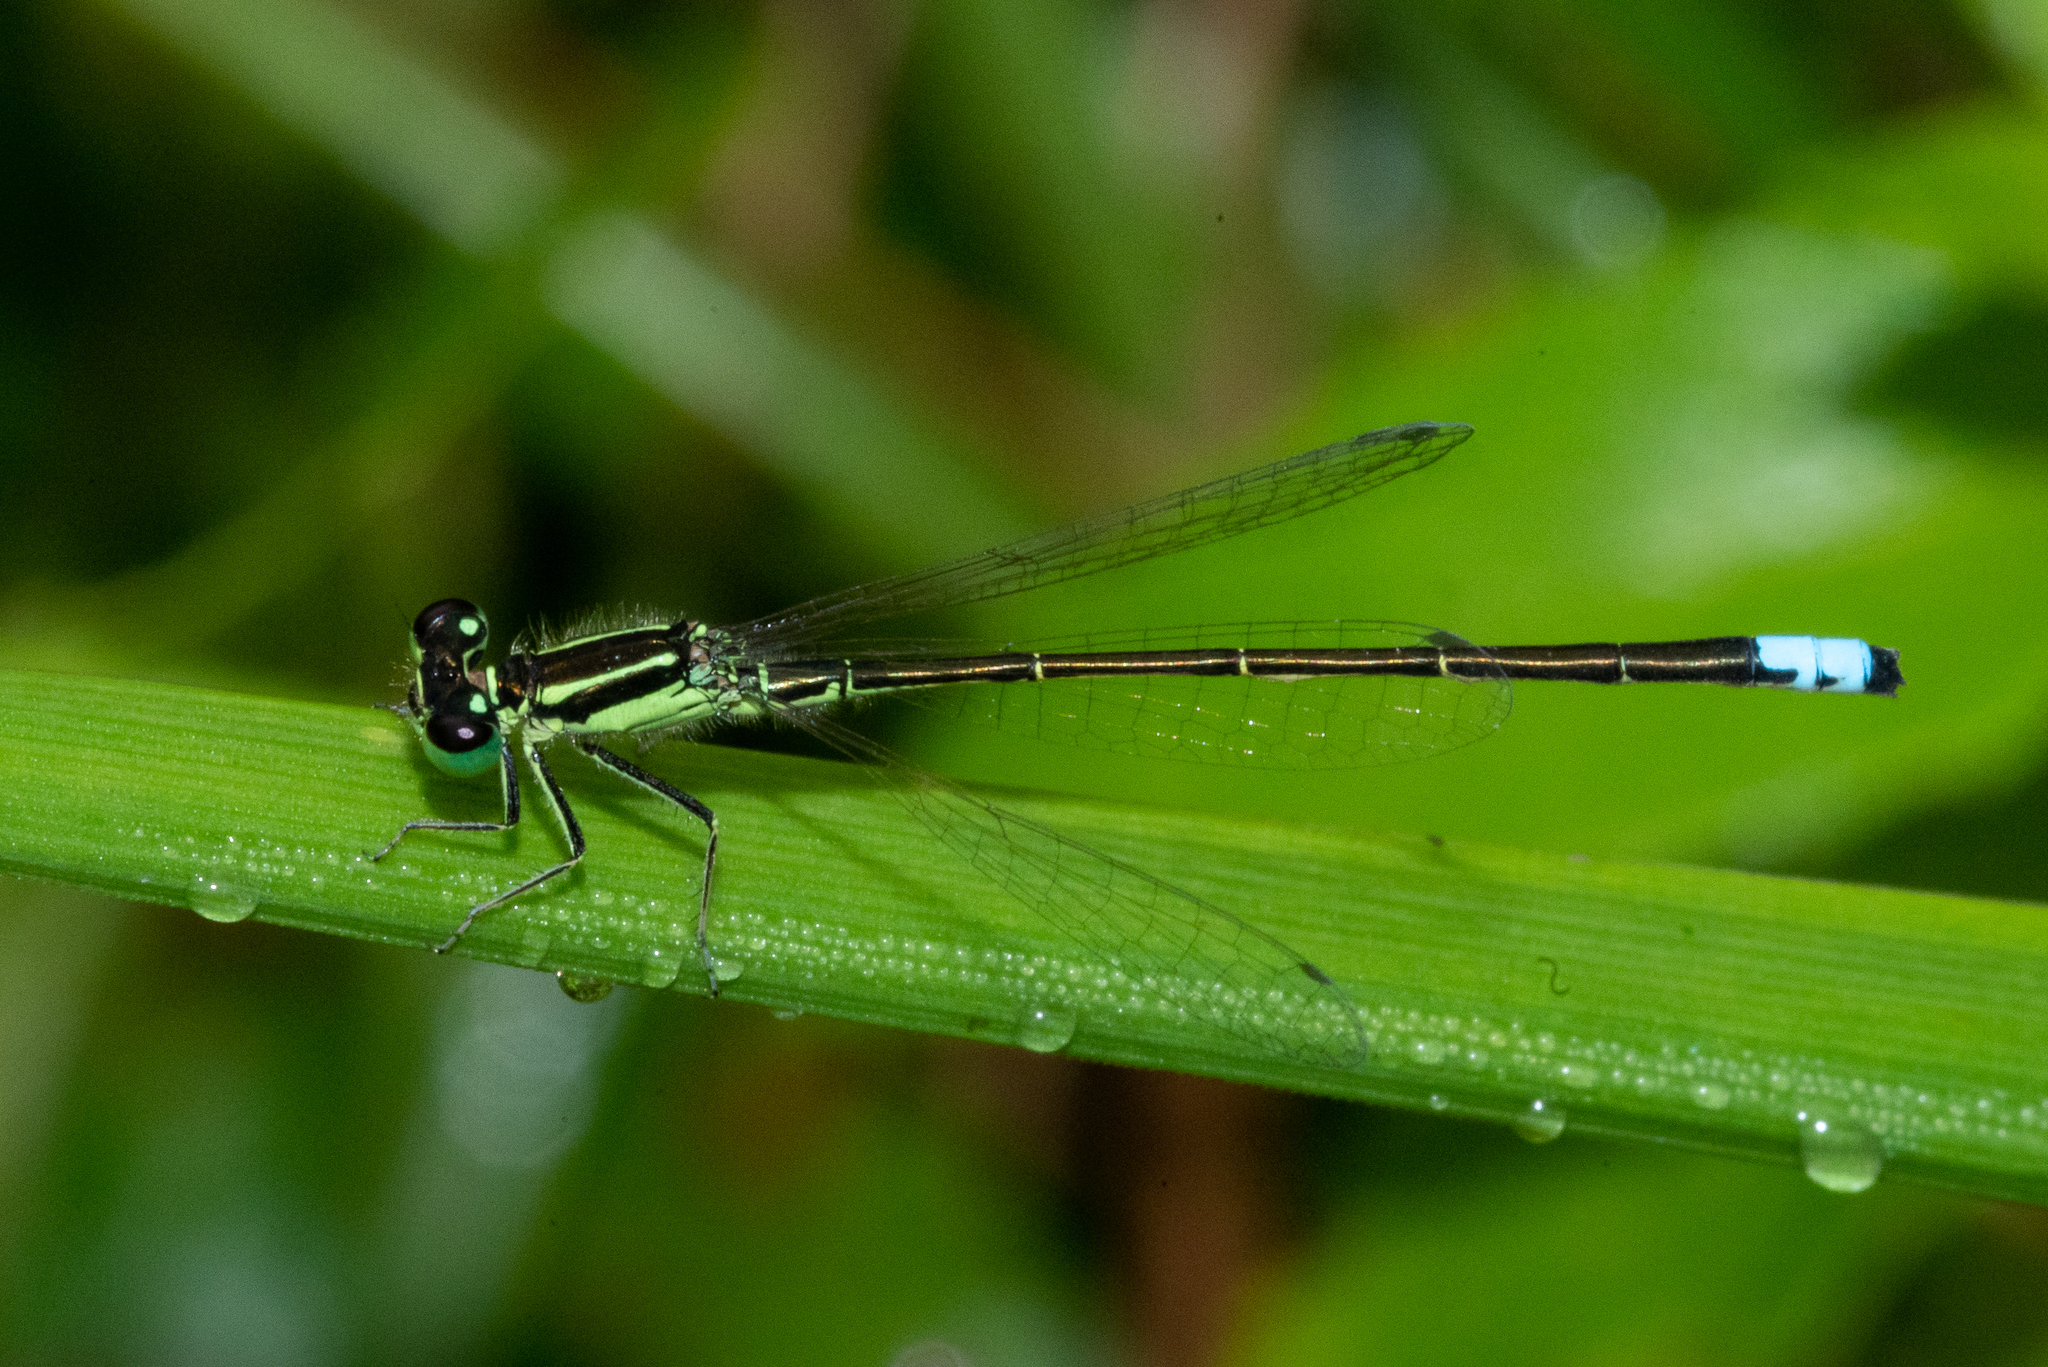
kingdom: Animalia
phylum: Arthropoda
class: Insecta
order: Odonata
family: Coenagrionidae
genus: Ischnura
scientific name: Ischnura verticalis
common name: Eastern forktail
